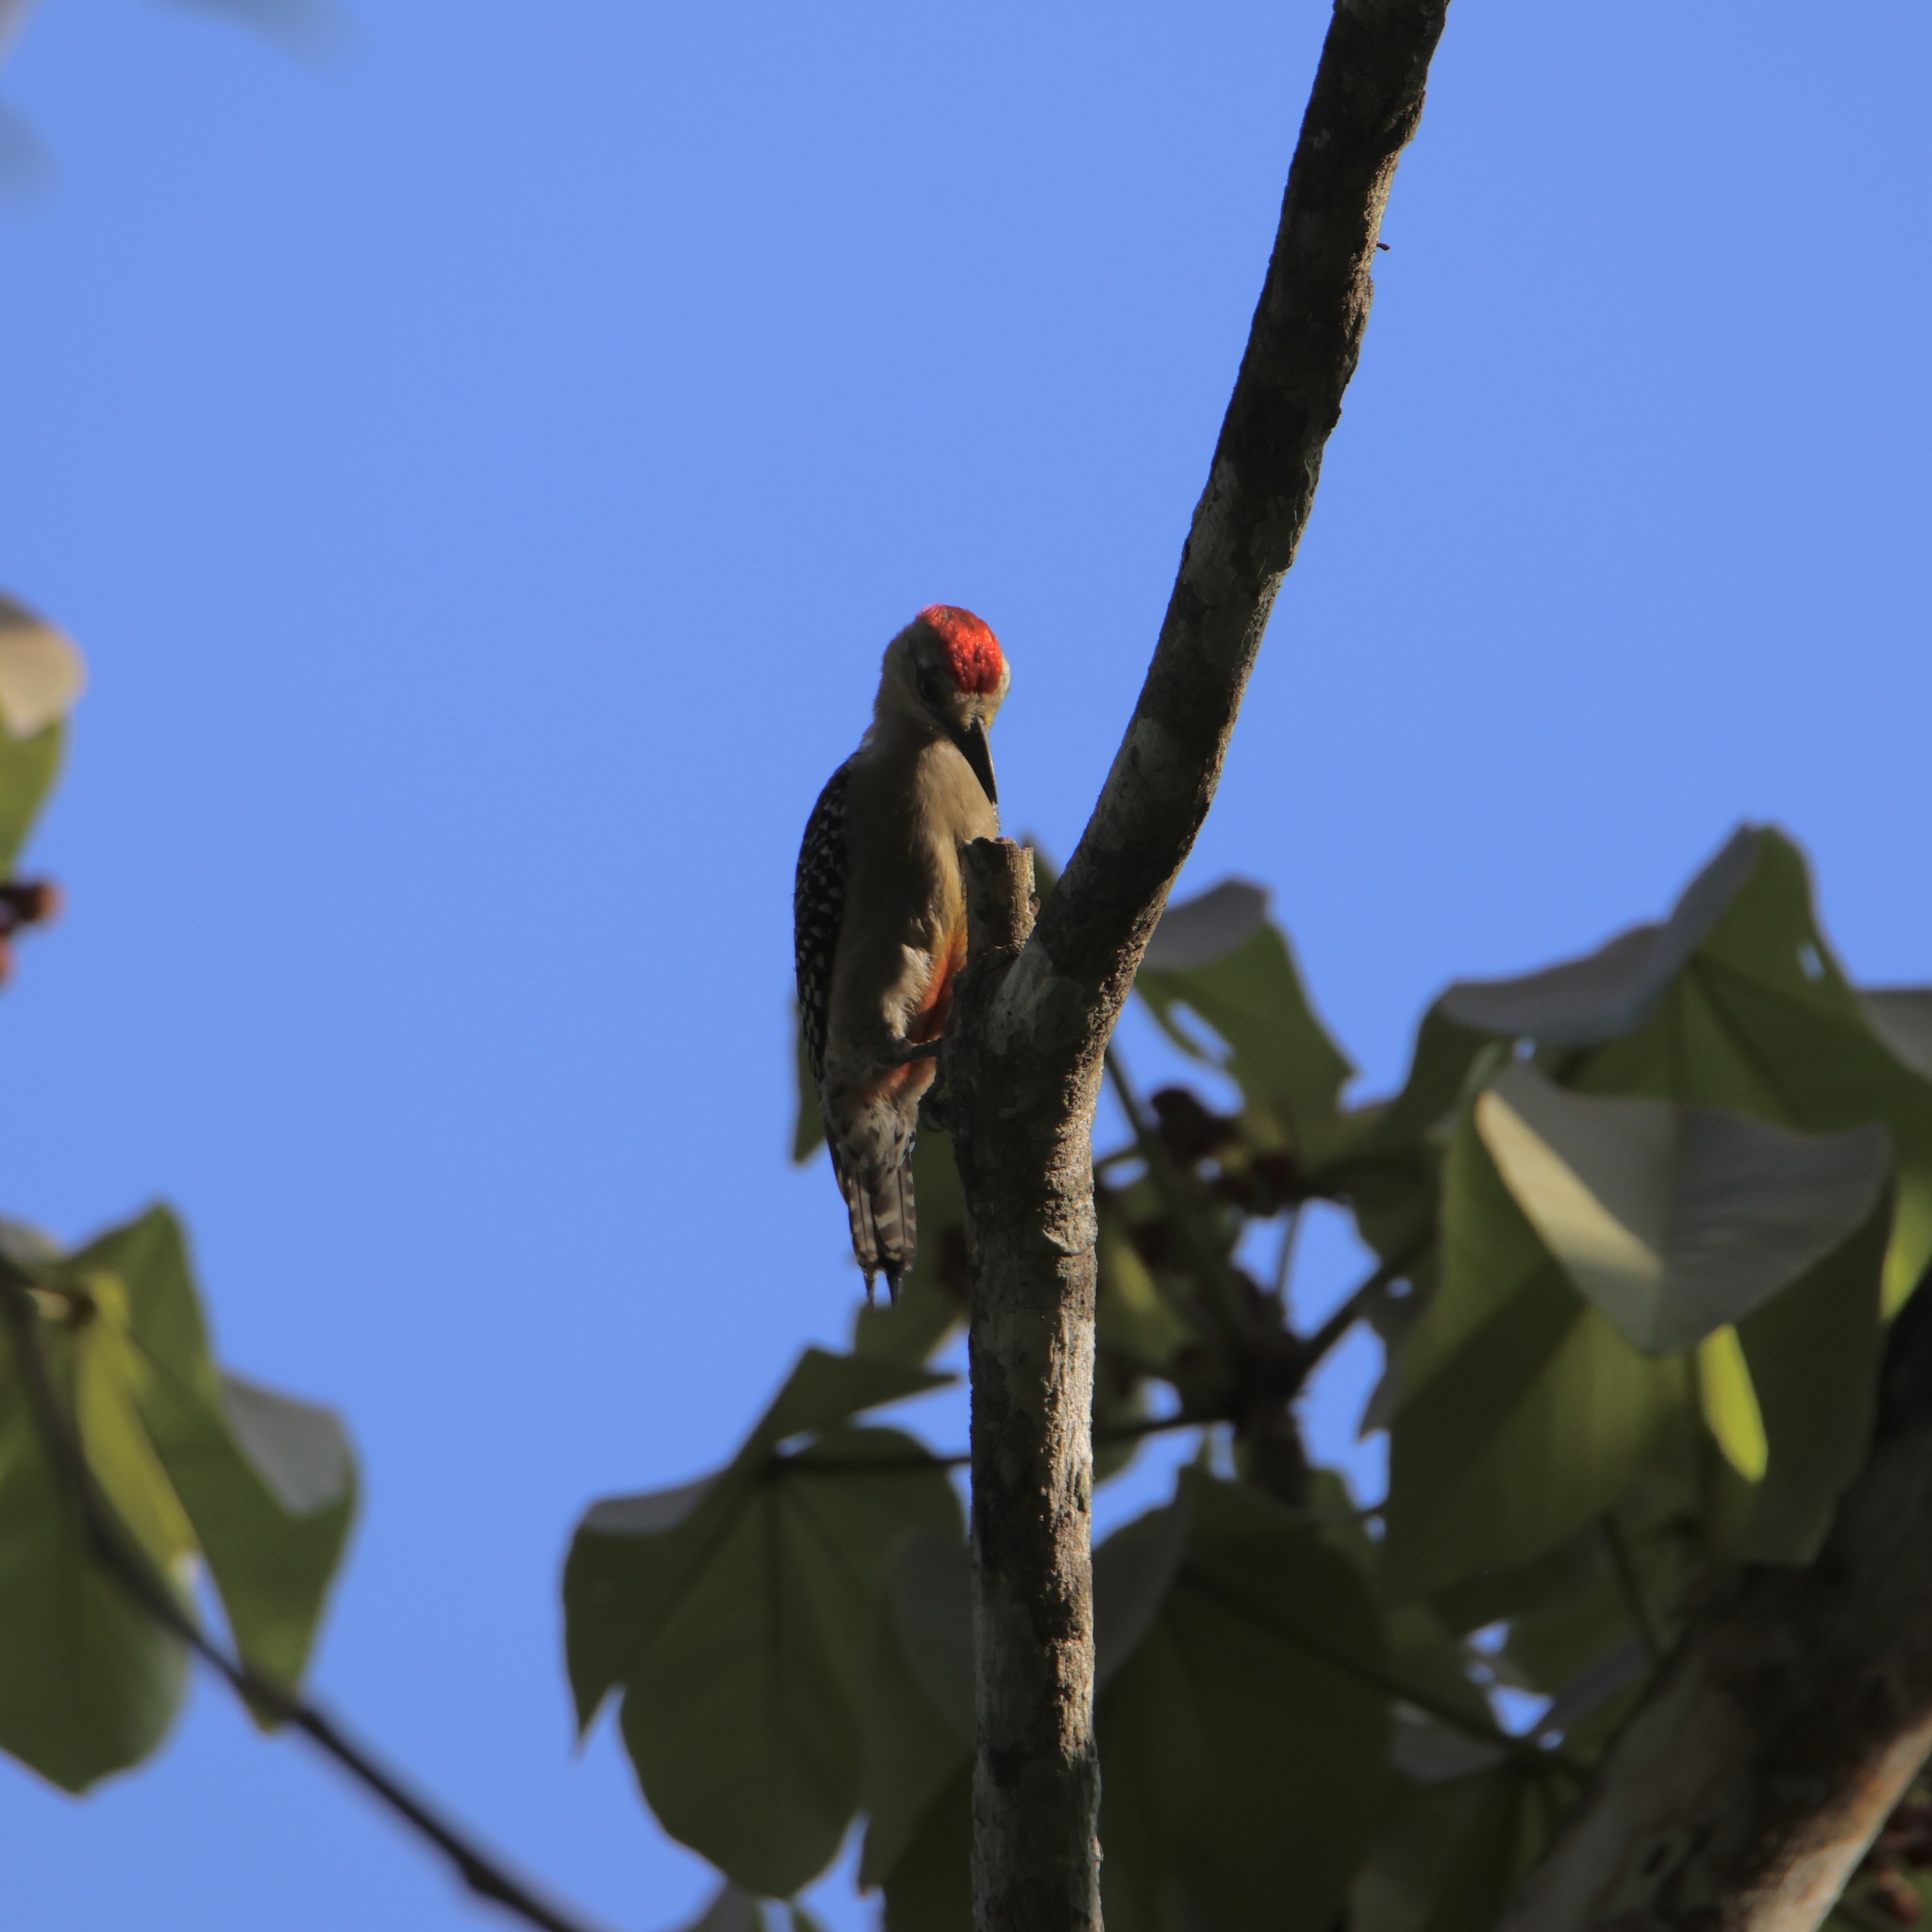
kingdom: Animalia
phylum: Chordata
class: Aves
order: Piciformes
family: Picidae
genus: Melanerpes
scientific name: Melanerpes rubricapillus
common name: Red-crowned woodpecker
